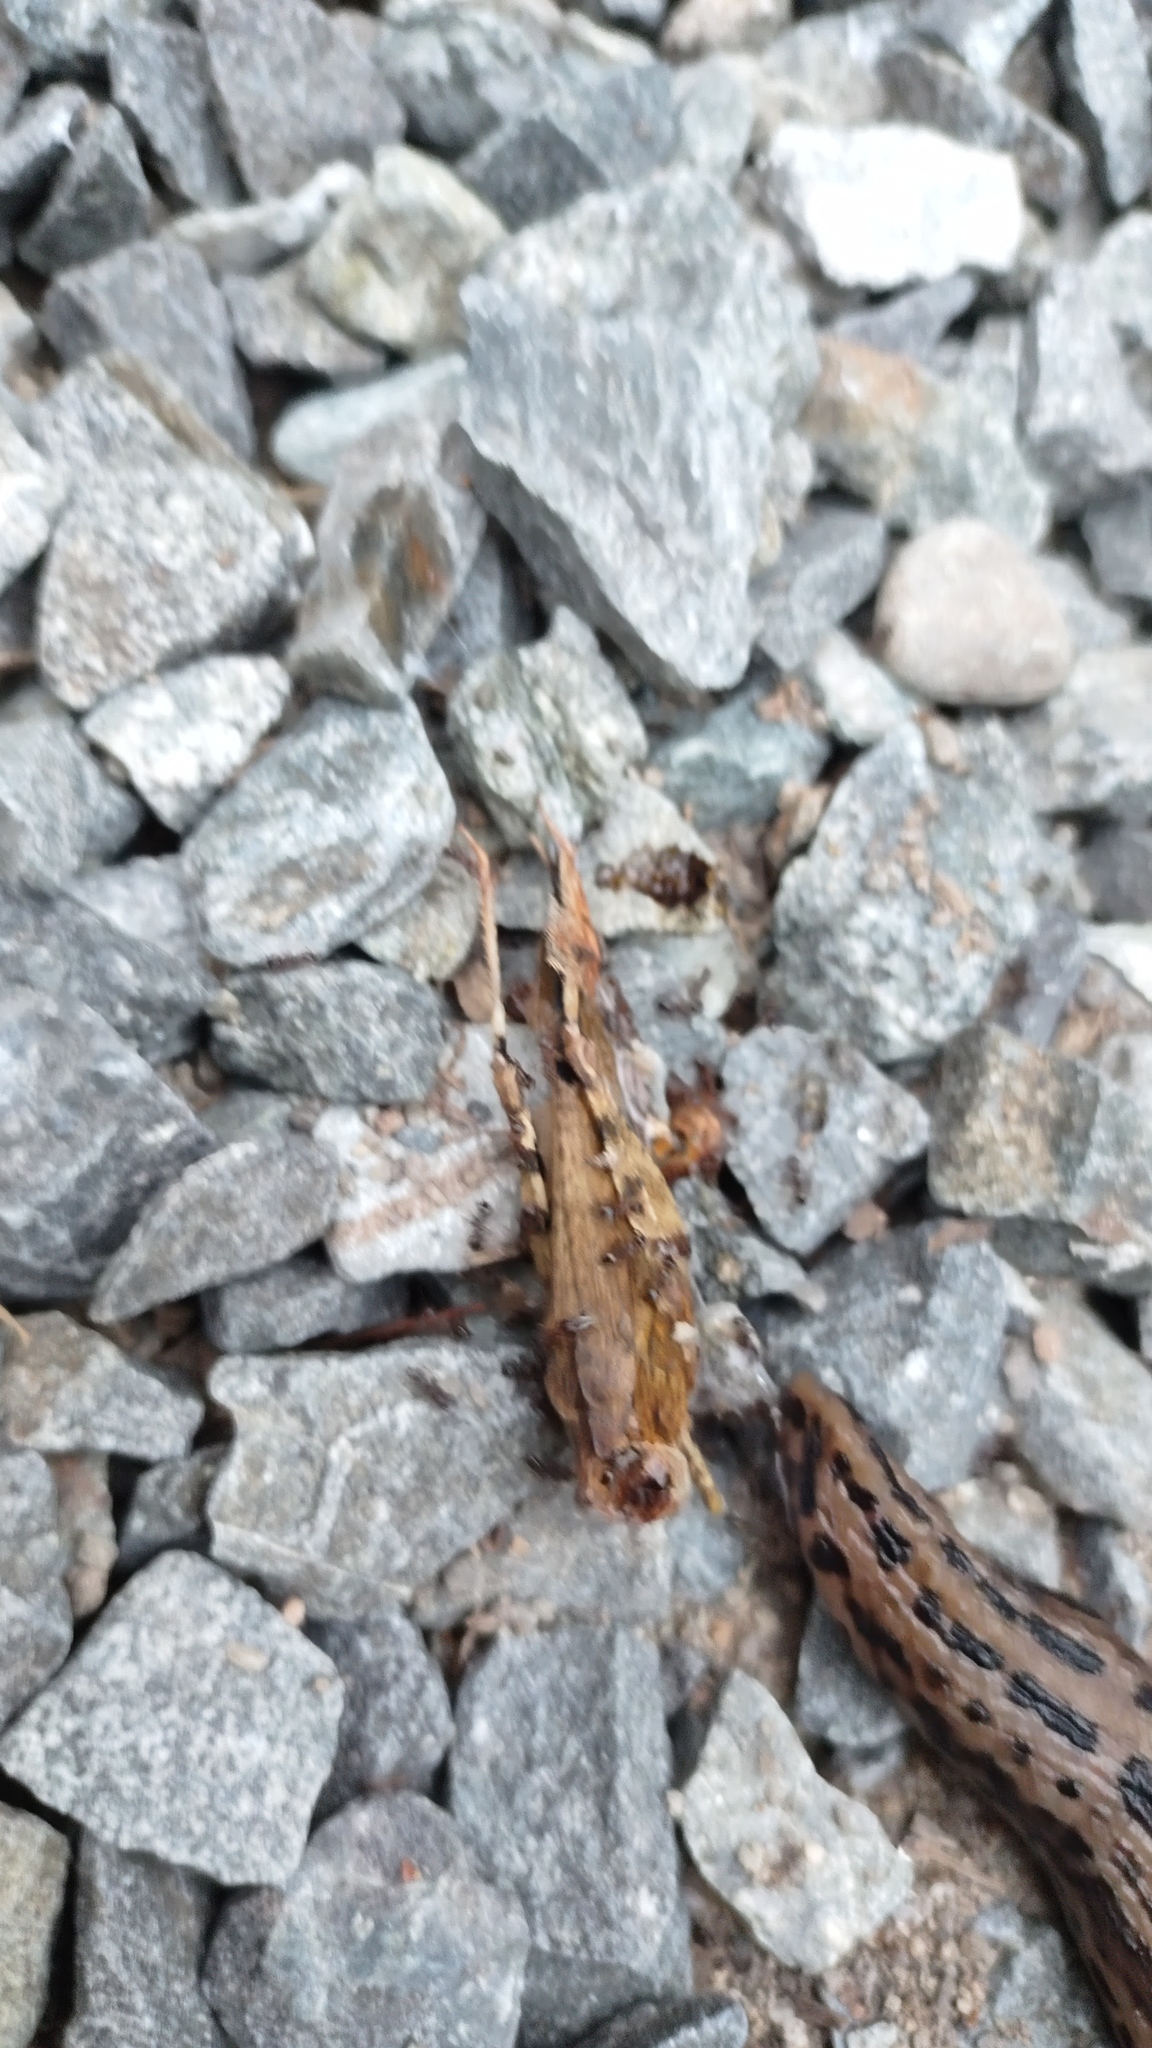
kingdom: Animalia
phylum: Arthropoda
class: Insecta
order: Orthoptera
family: Acrididae
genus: Dissosteira
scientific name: Dissosteira carolina
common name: Carolina grasshopper
